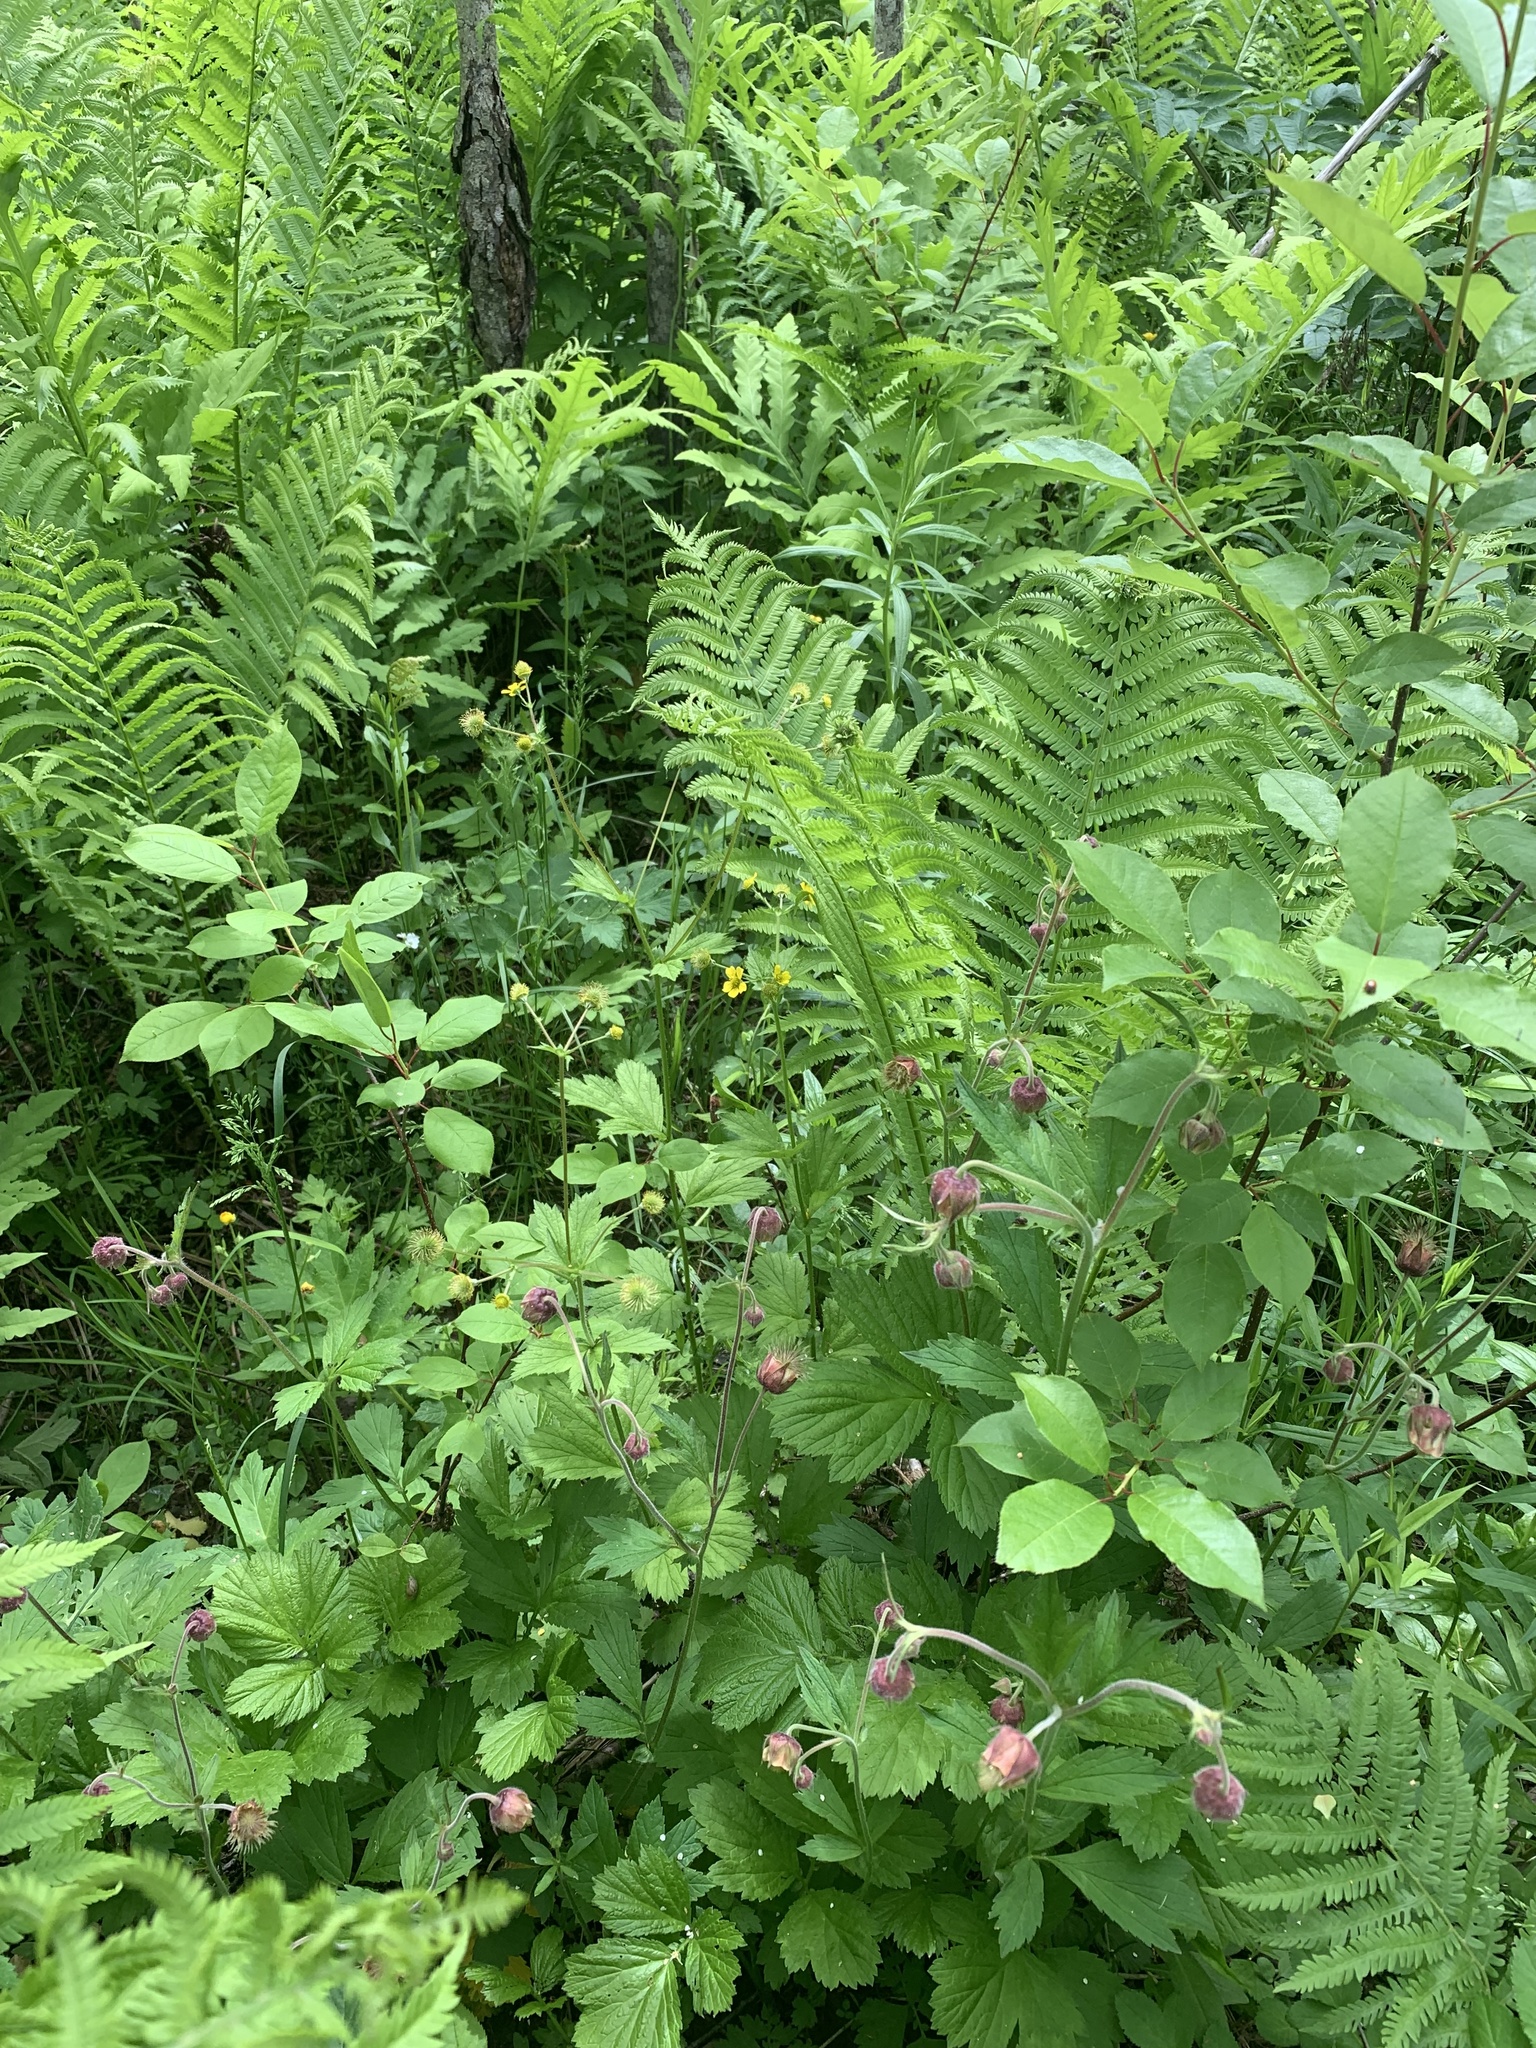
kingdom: Plantae
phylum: Tracheophyta
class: Magnoliopsida
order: Rosales
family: Rosaceae
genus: Geum
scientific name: Geum rivale
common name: Water avens
